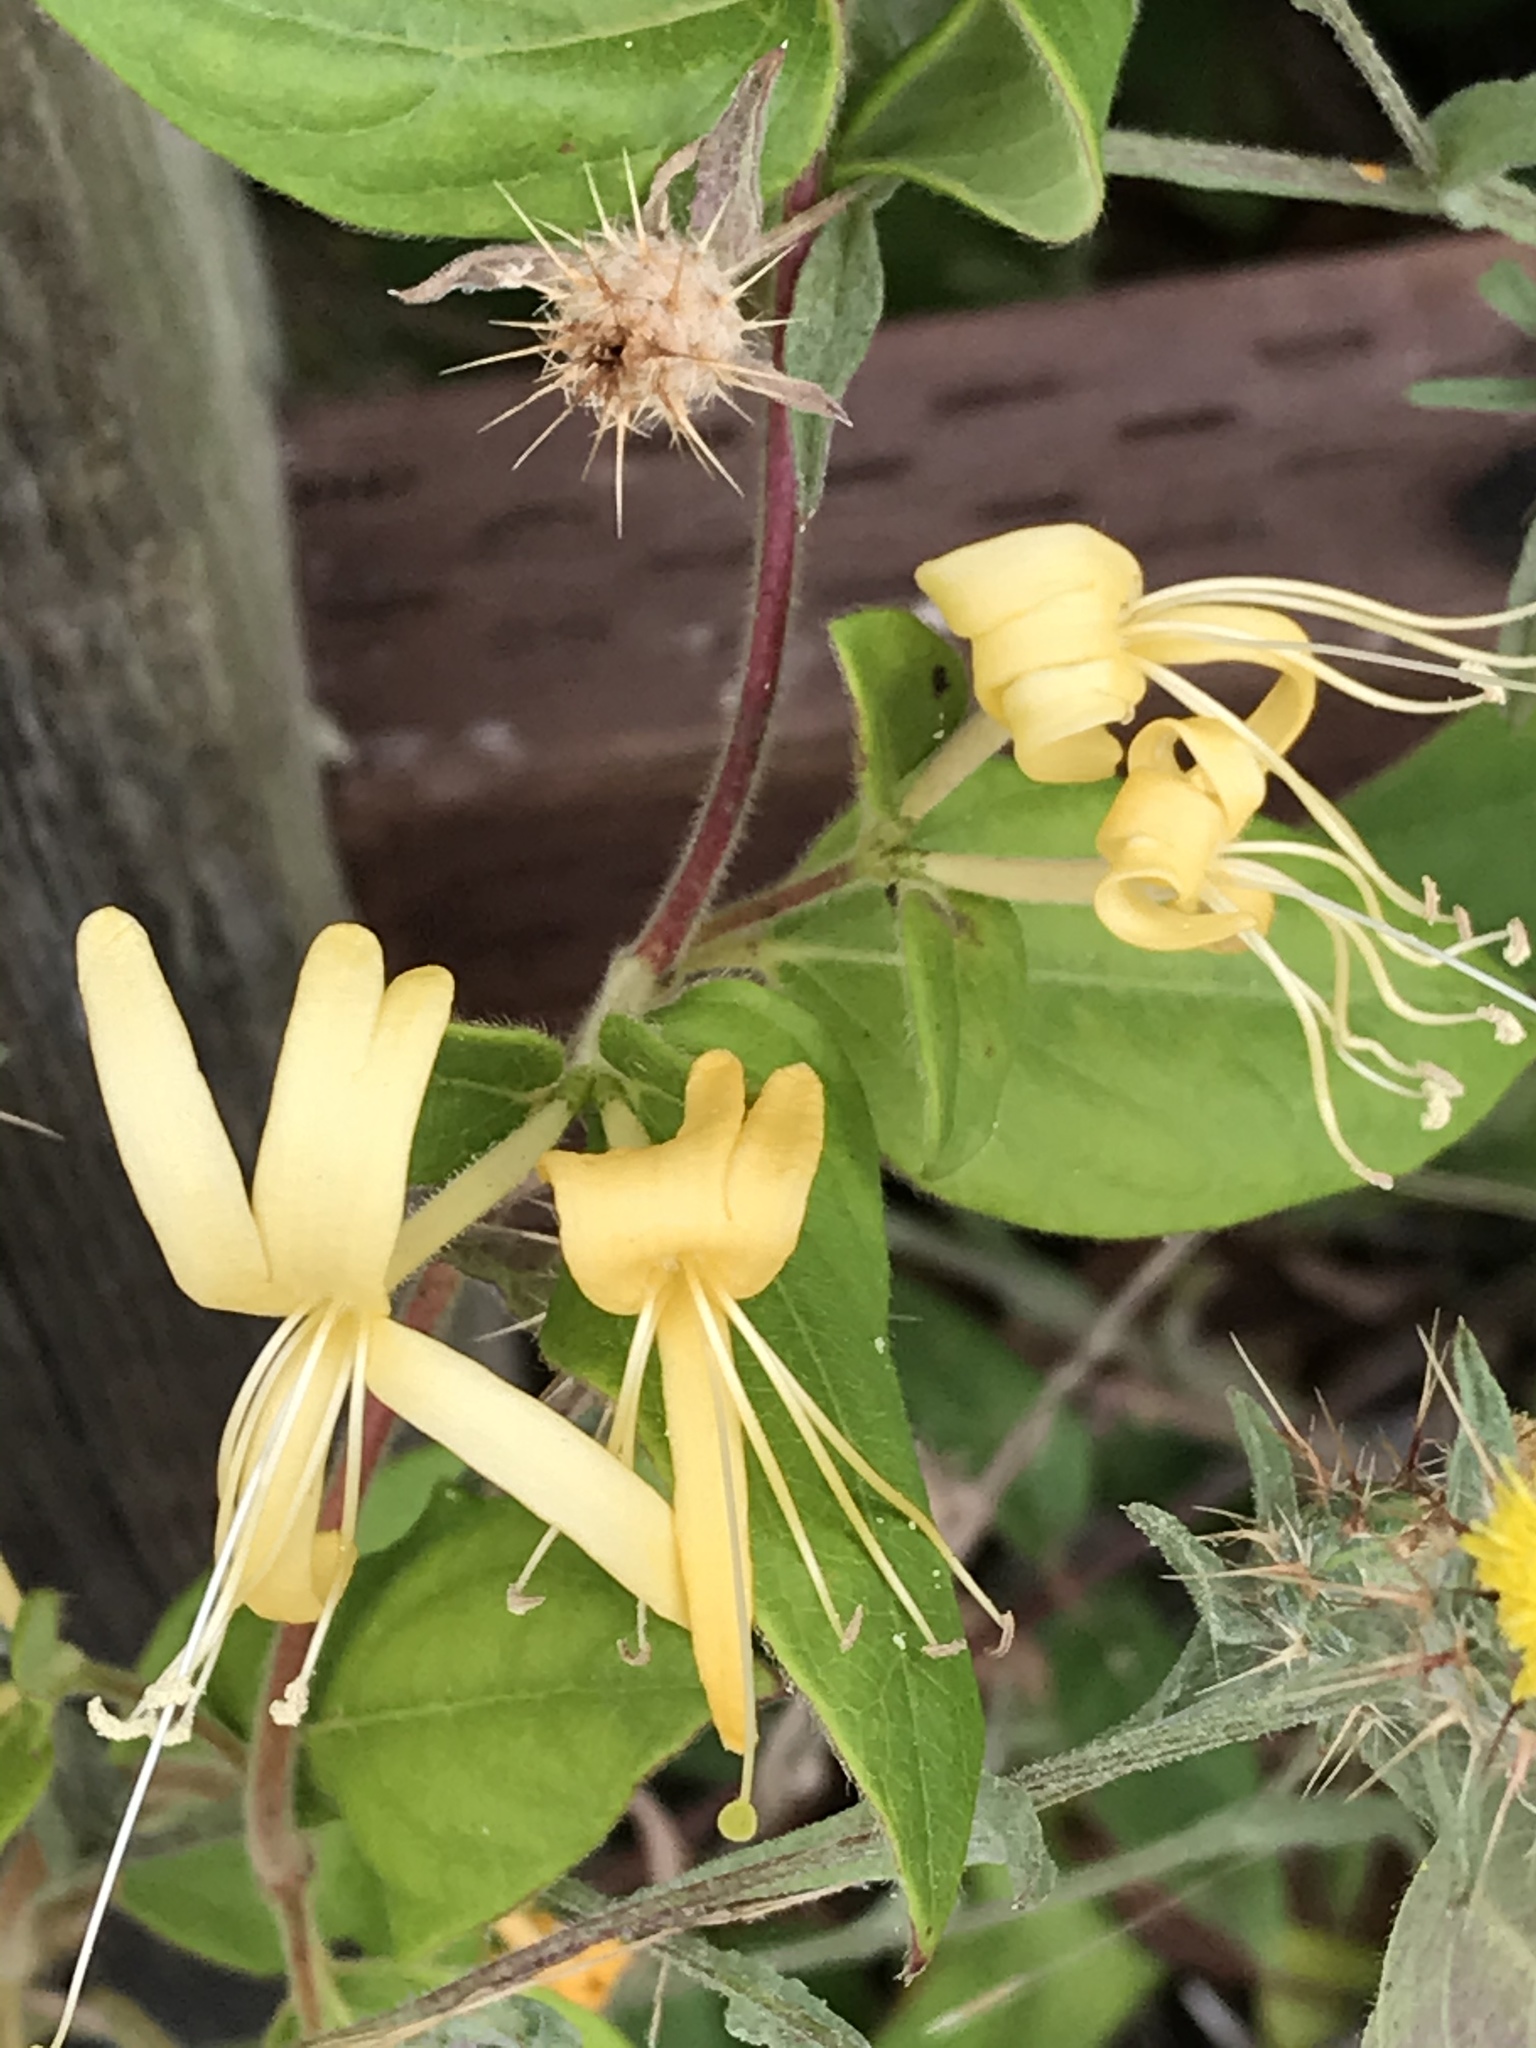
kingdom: Plantae
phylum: Tracheophyta
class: Magnoliopsida
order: Dipsacales
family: Caprifoliaceae
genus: Lonicera
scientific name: Lonicera japonica
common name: Japanese honeysuckle
